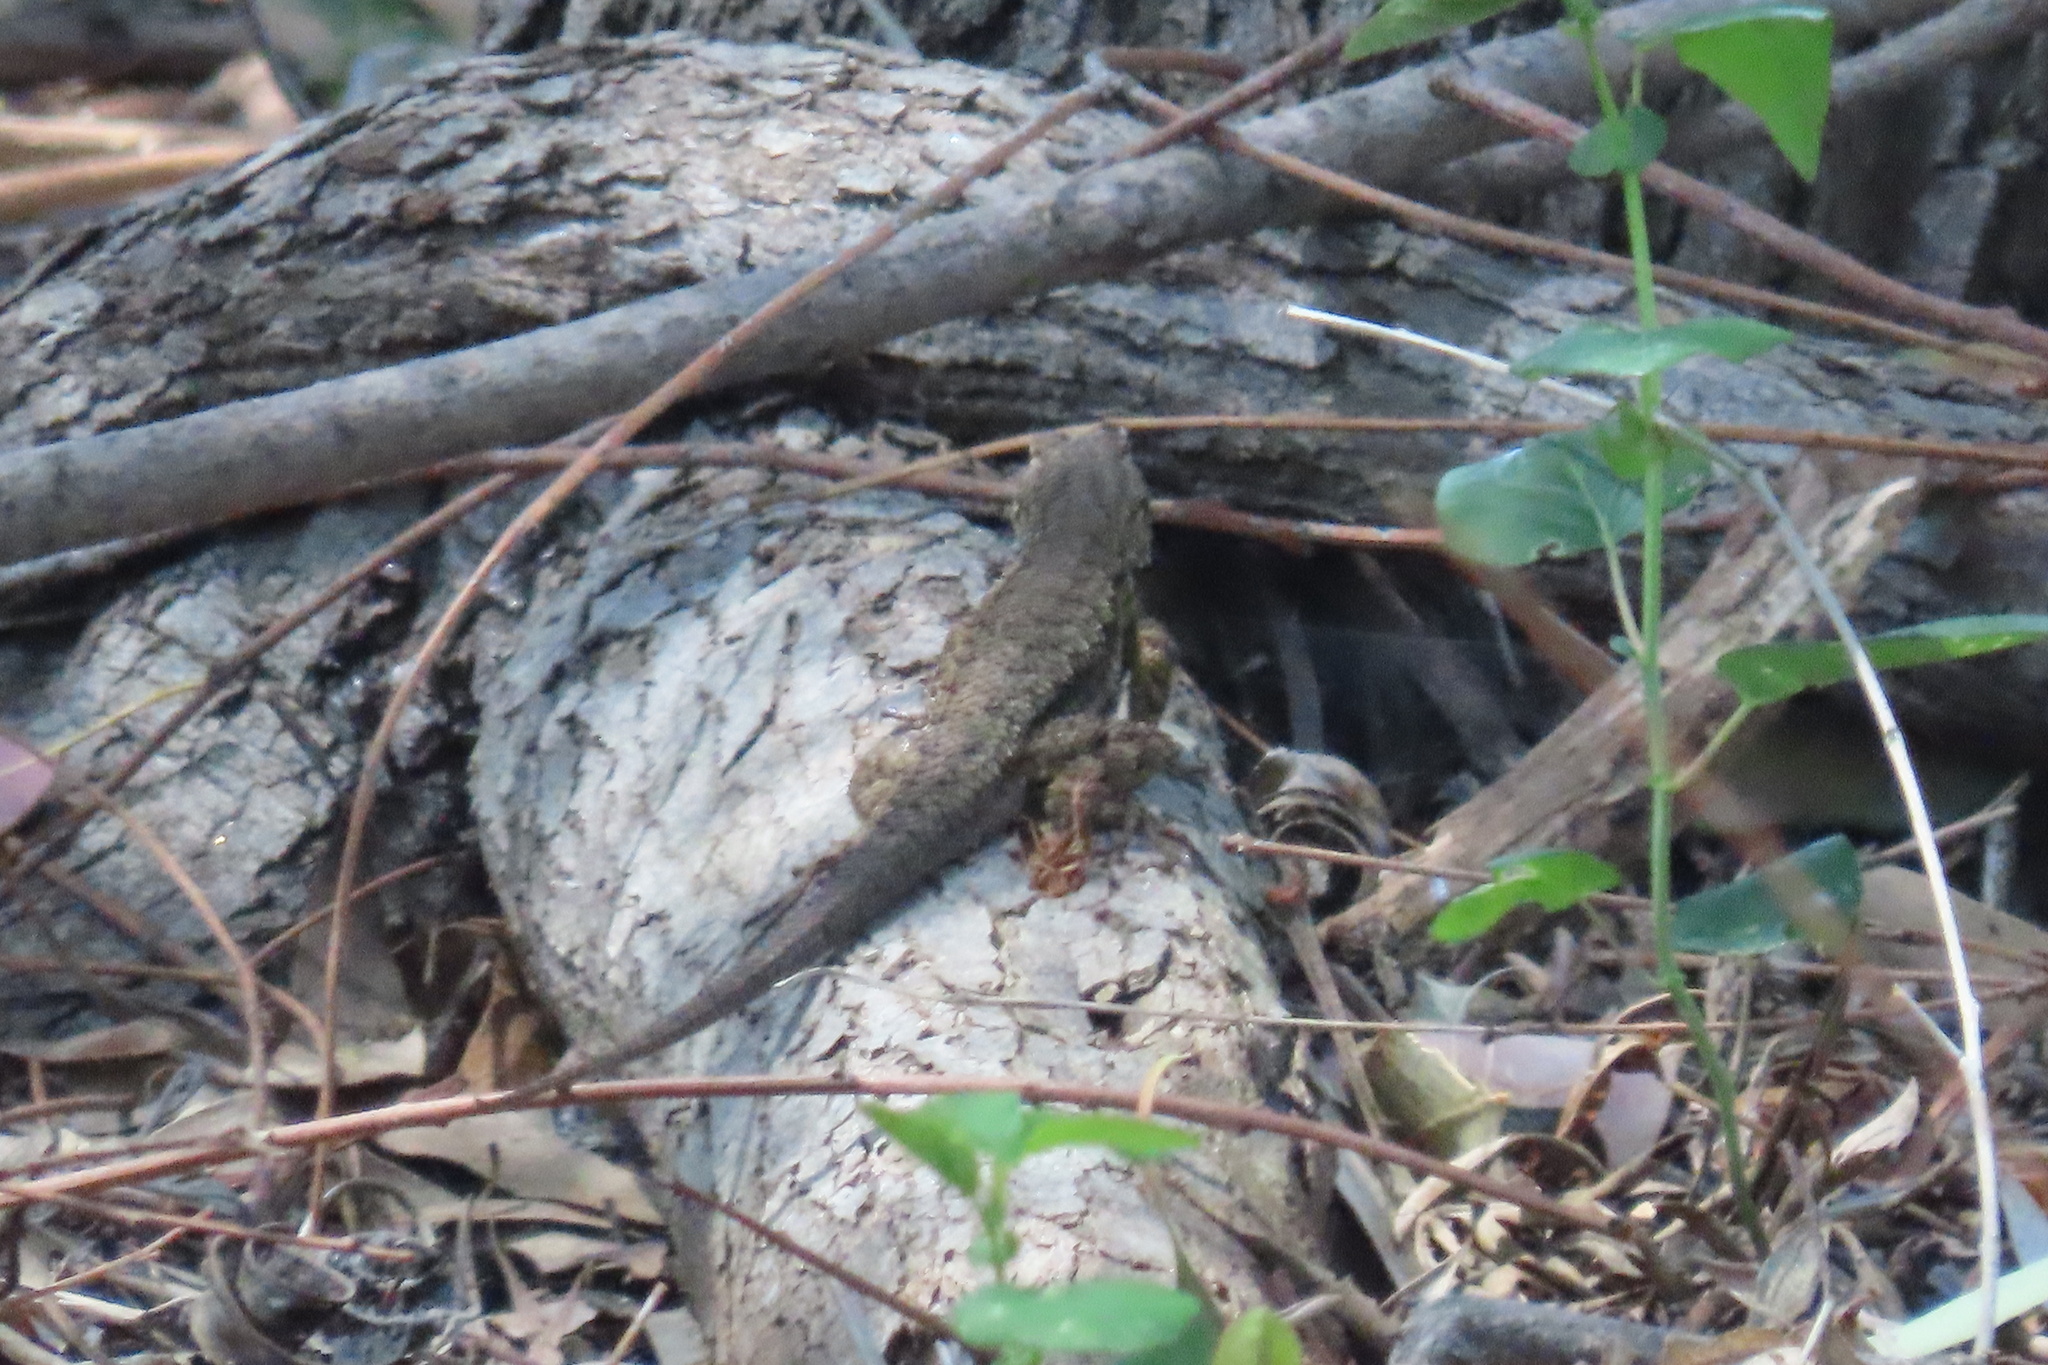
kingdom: Animalia
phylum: Chordata
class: Squamata
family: Phrynosomatidae
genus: Sceloporus
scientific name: Sceloporus occidentalis
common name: Western fence lizard
